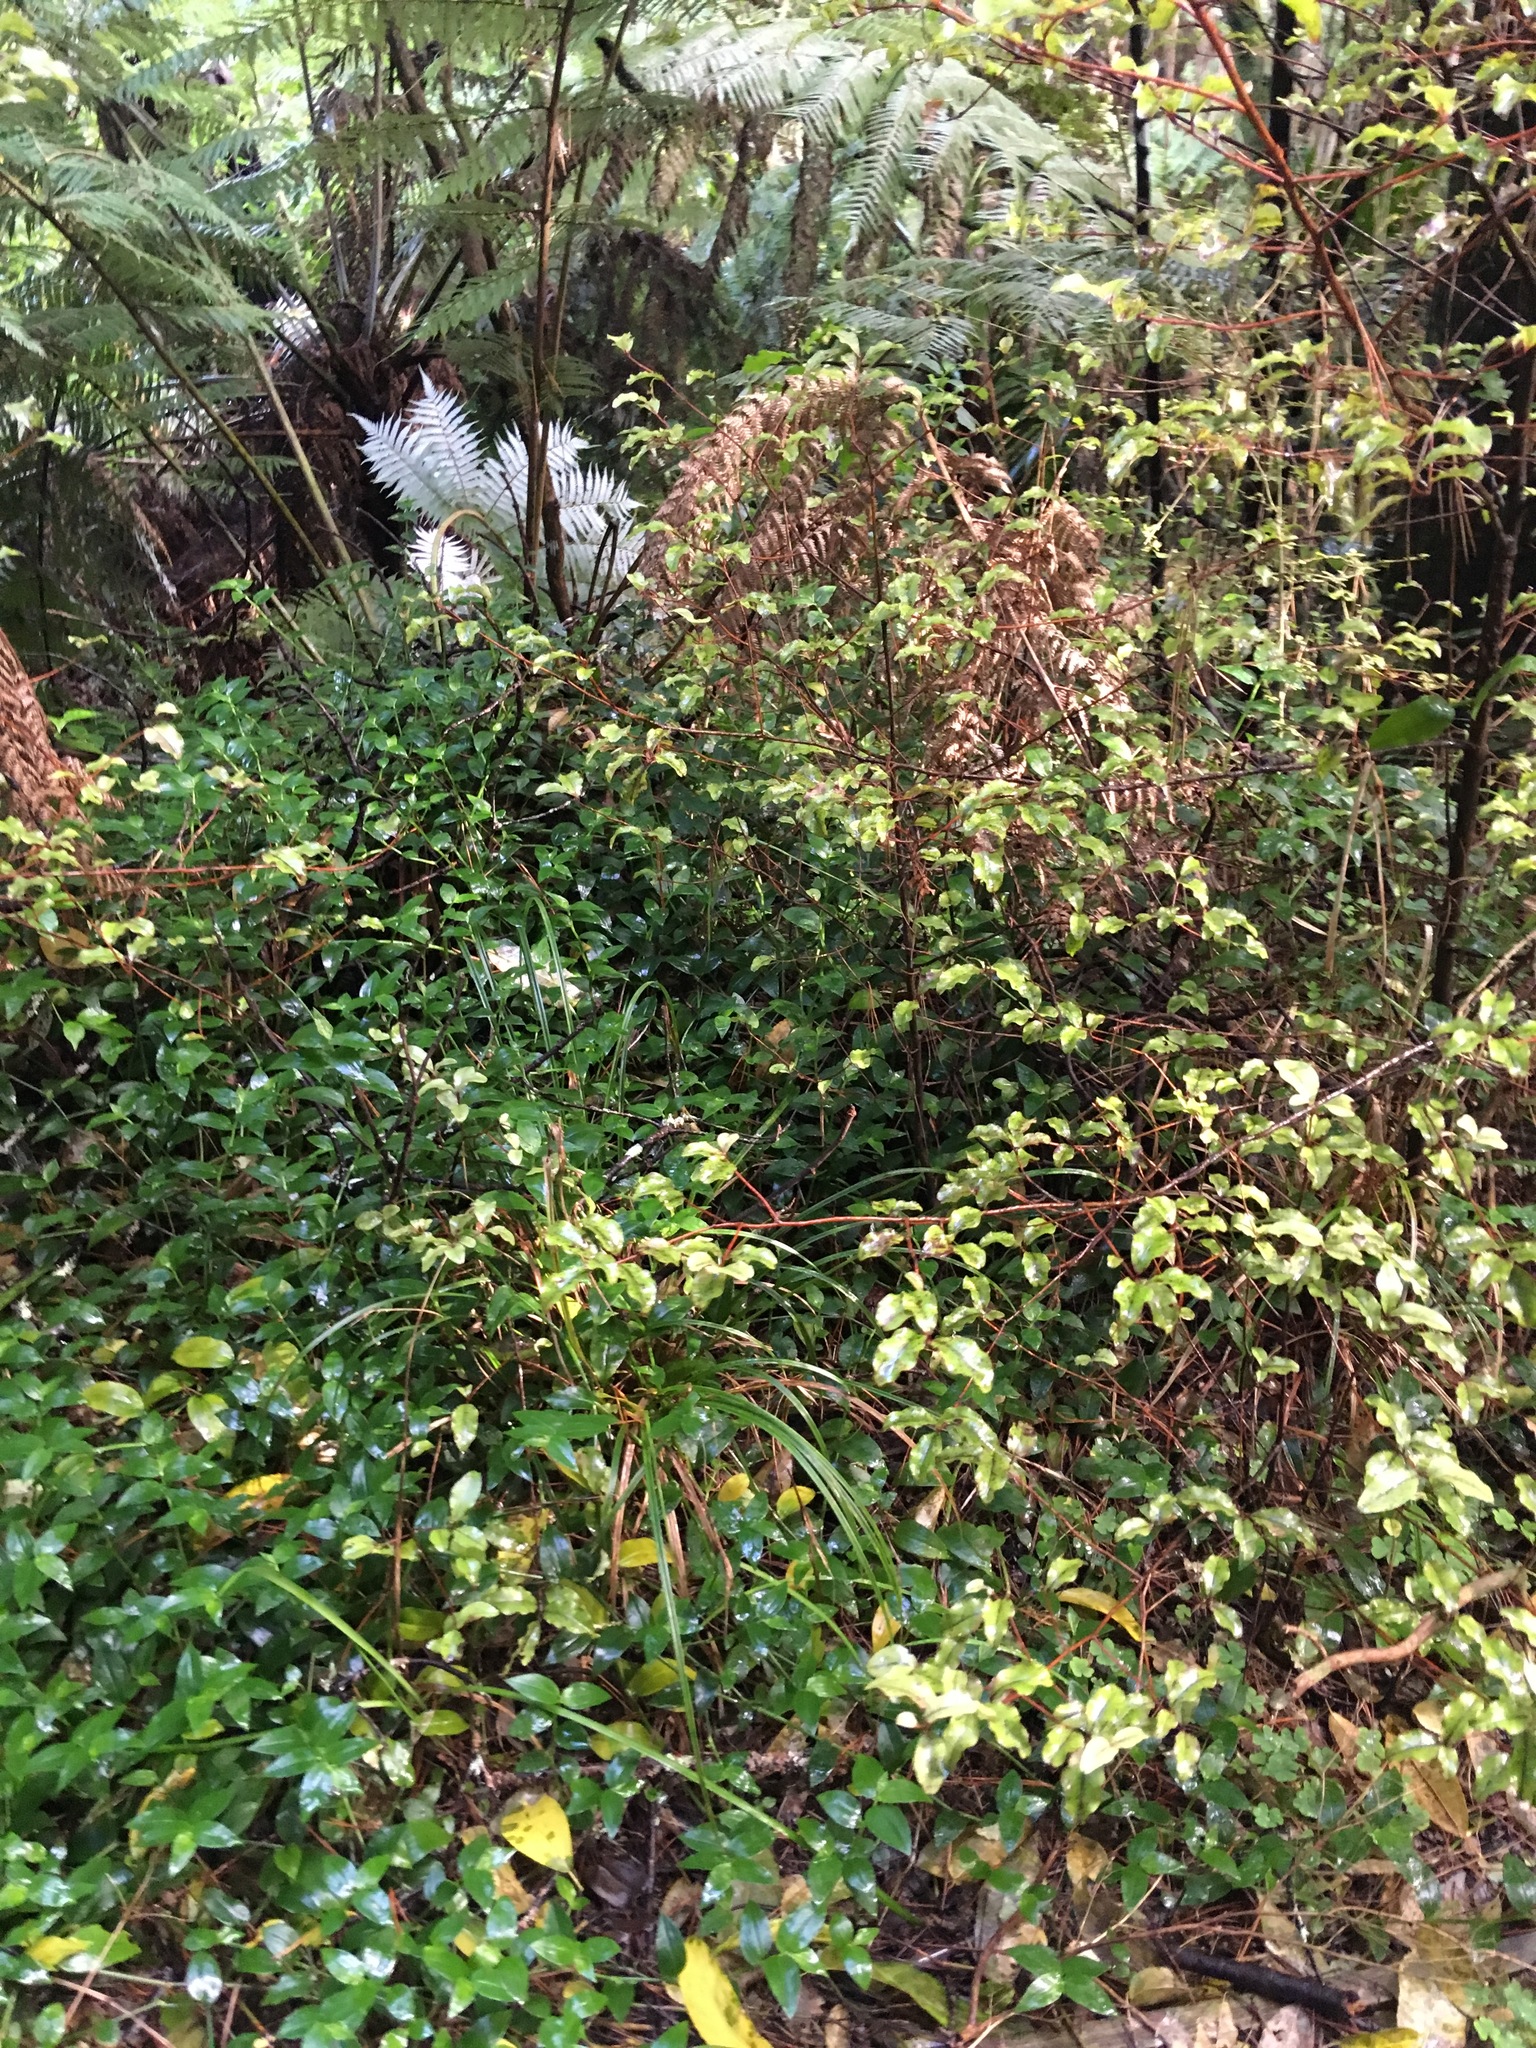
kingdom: Plantae
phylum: Tracheophyta
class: Liliopsida
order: Commelinales
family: Commelinaceae
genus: Tradescantia
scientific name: Tradescantia fluminensis
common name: Wandering-jew
